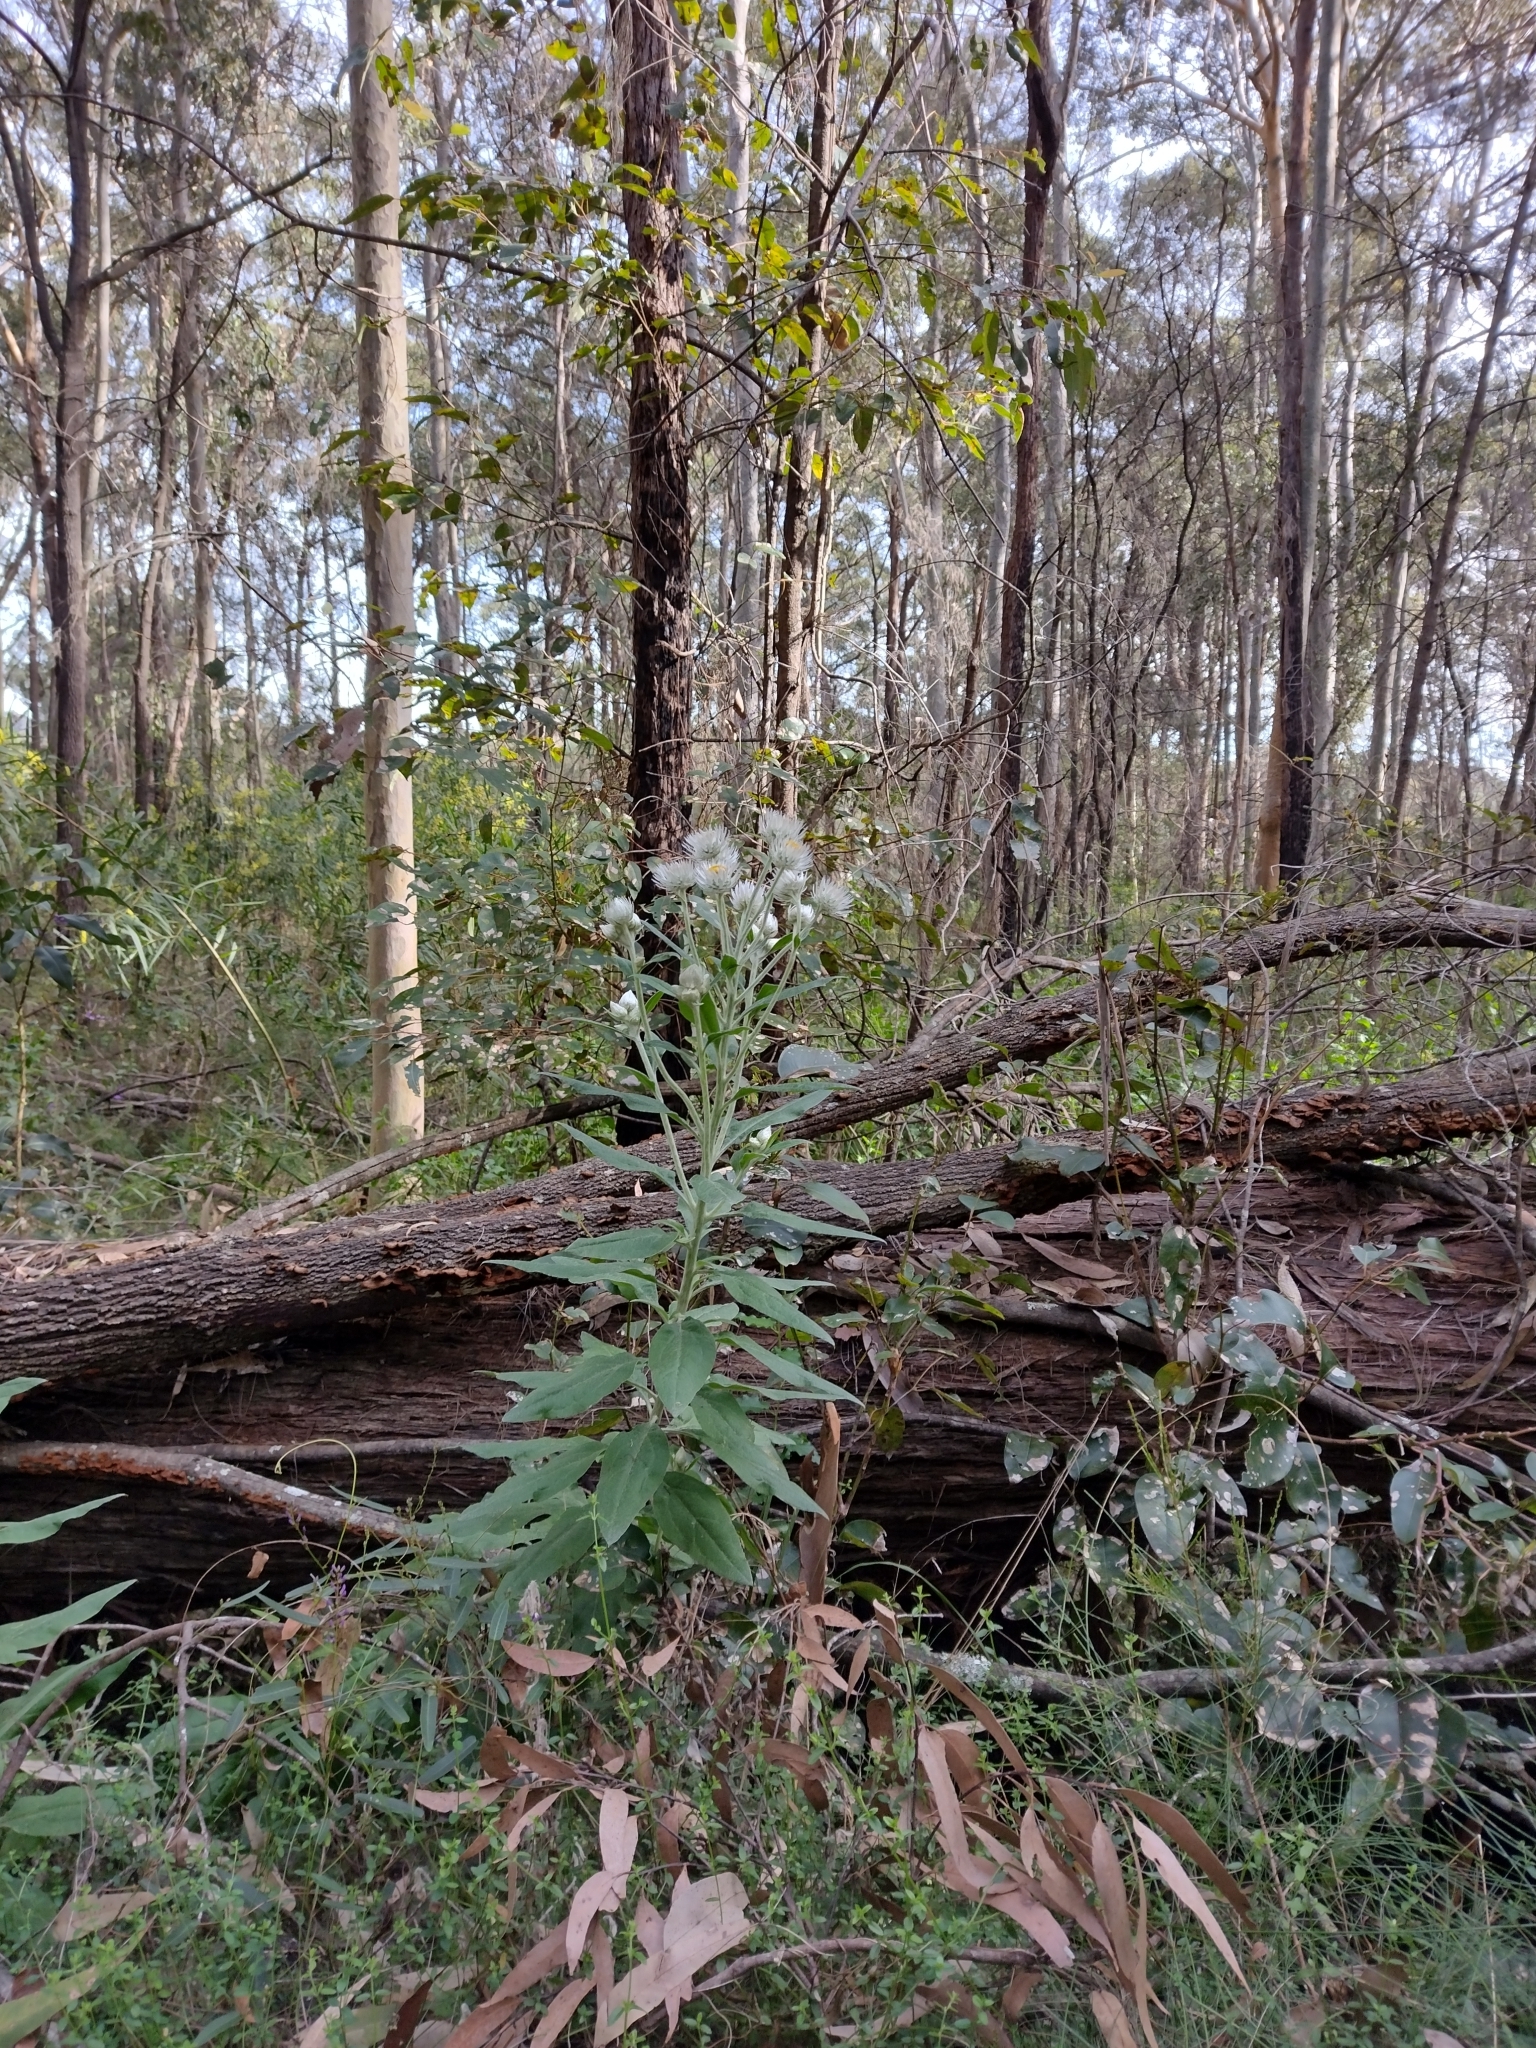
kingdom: Plantae
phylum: Tracheophyta
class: Magnoliopsida
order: Asterales
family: Asteraceae
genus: Leucozoma
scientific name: Leucozoma elatum
